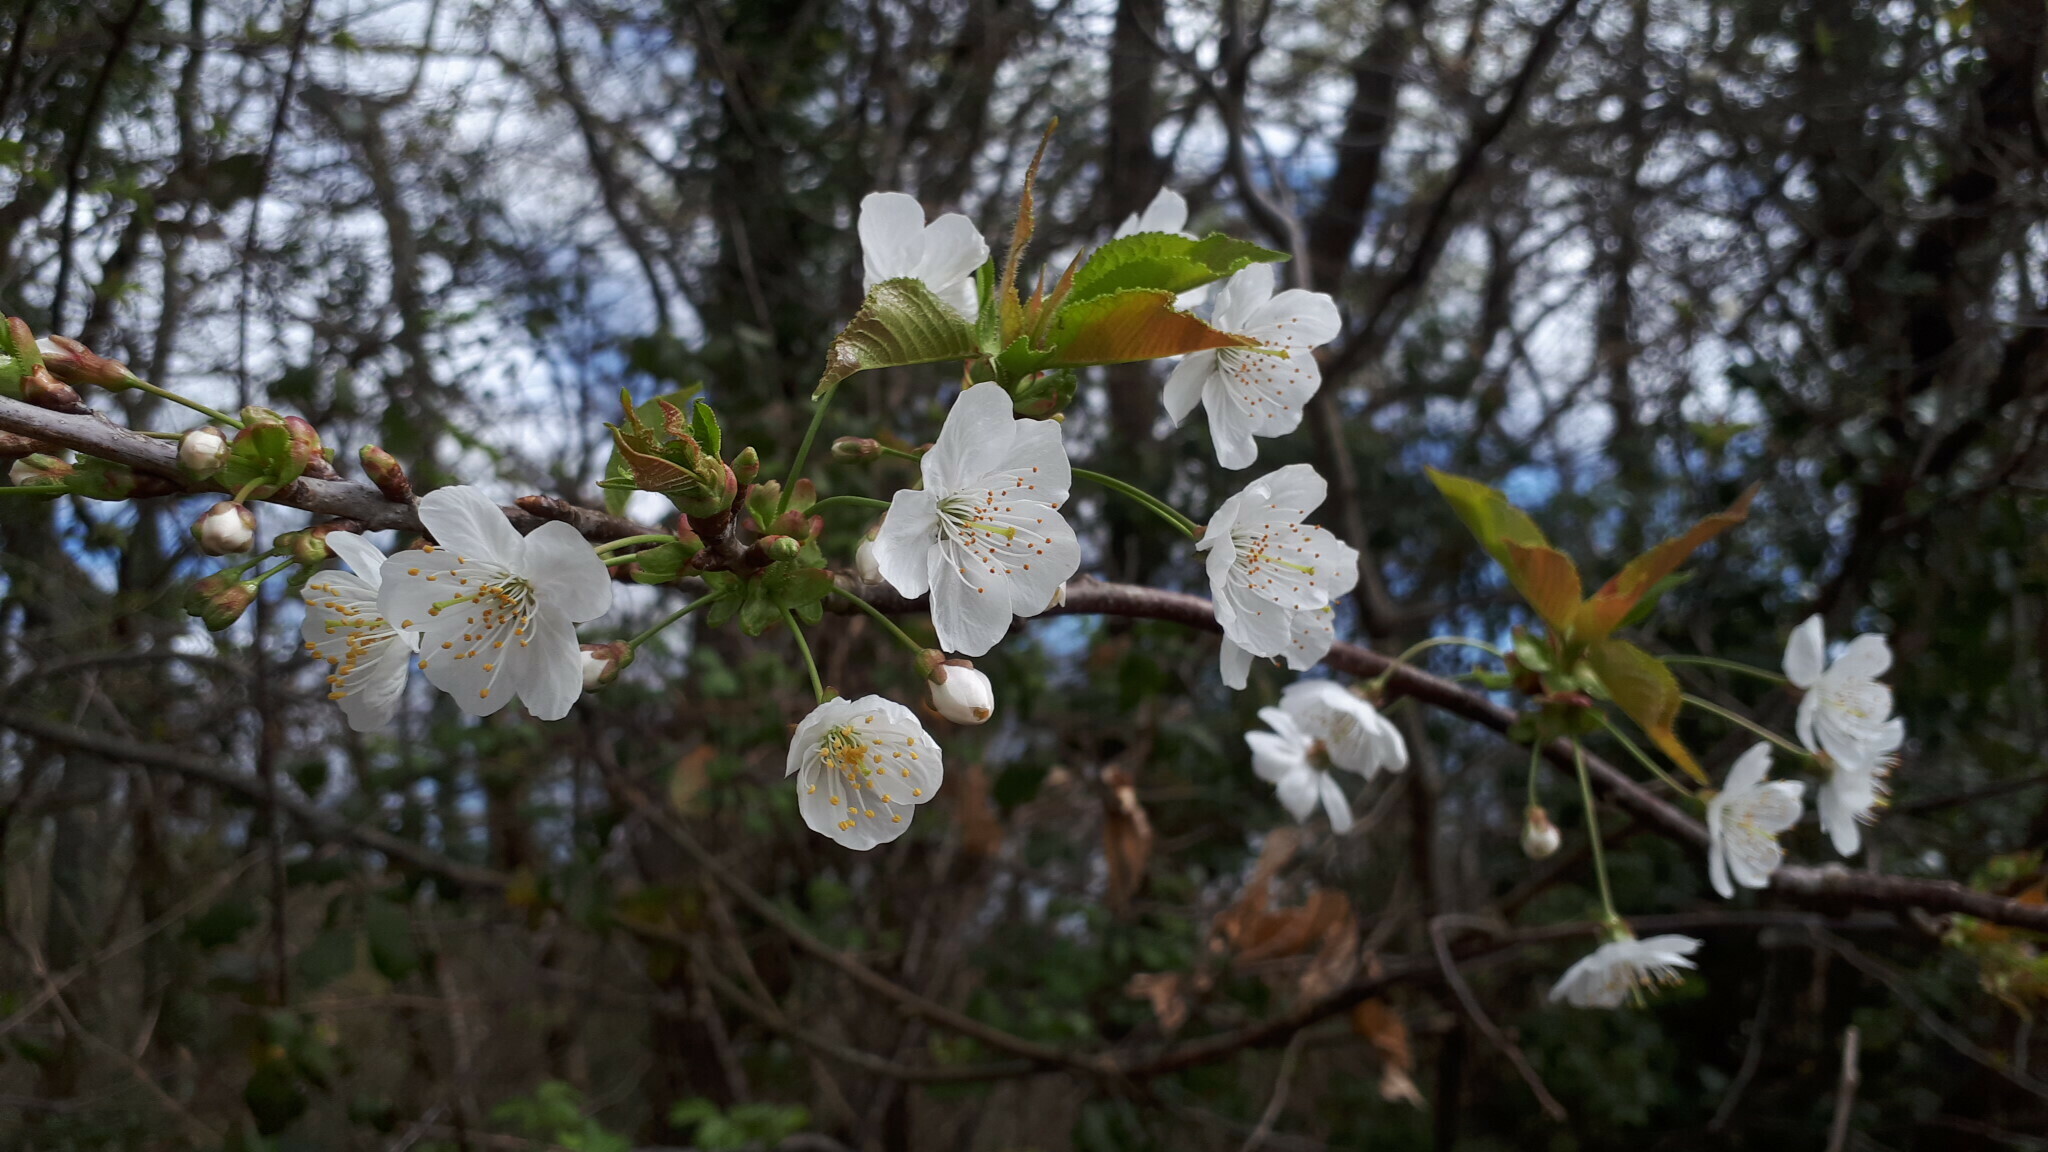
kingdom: Plantae
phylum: Tracheophyta
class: Magnoliopsida
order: Rosales
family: Rosaceae
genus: Prunus
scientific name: Prunus avium
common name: Sweet cherry
